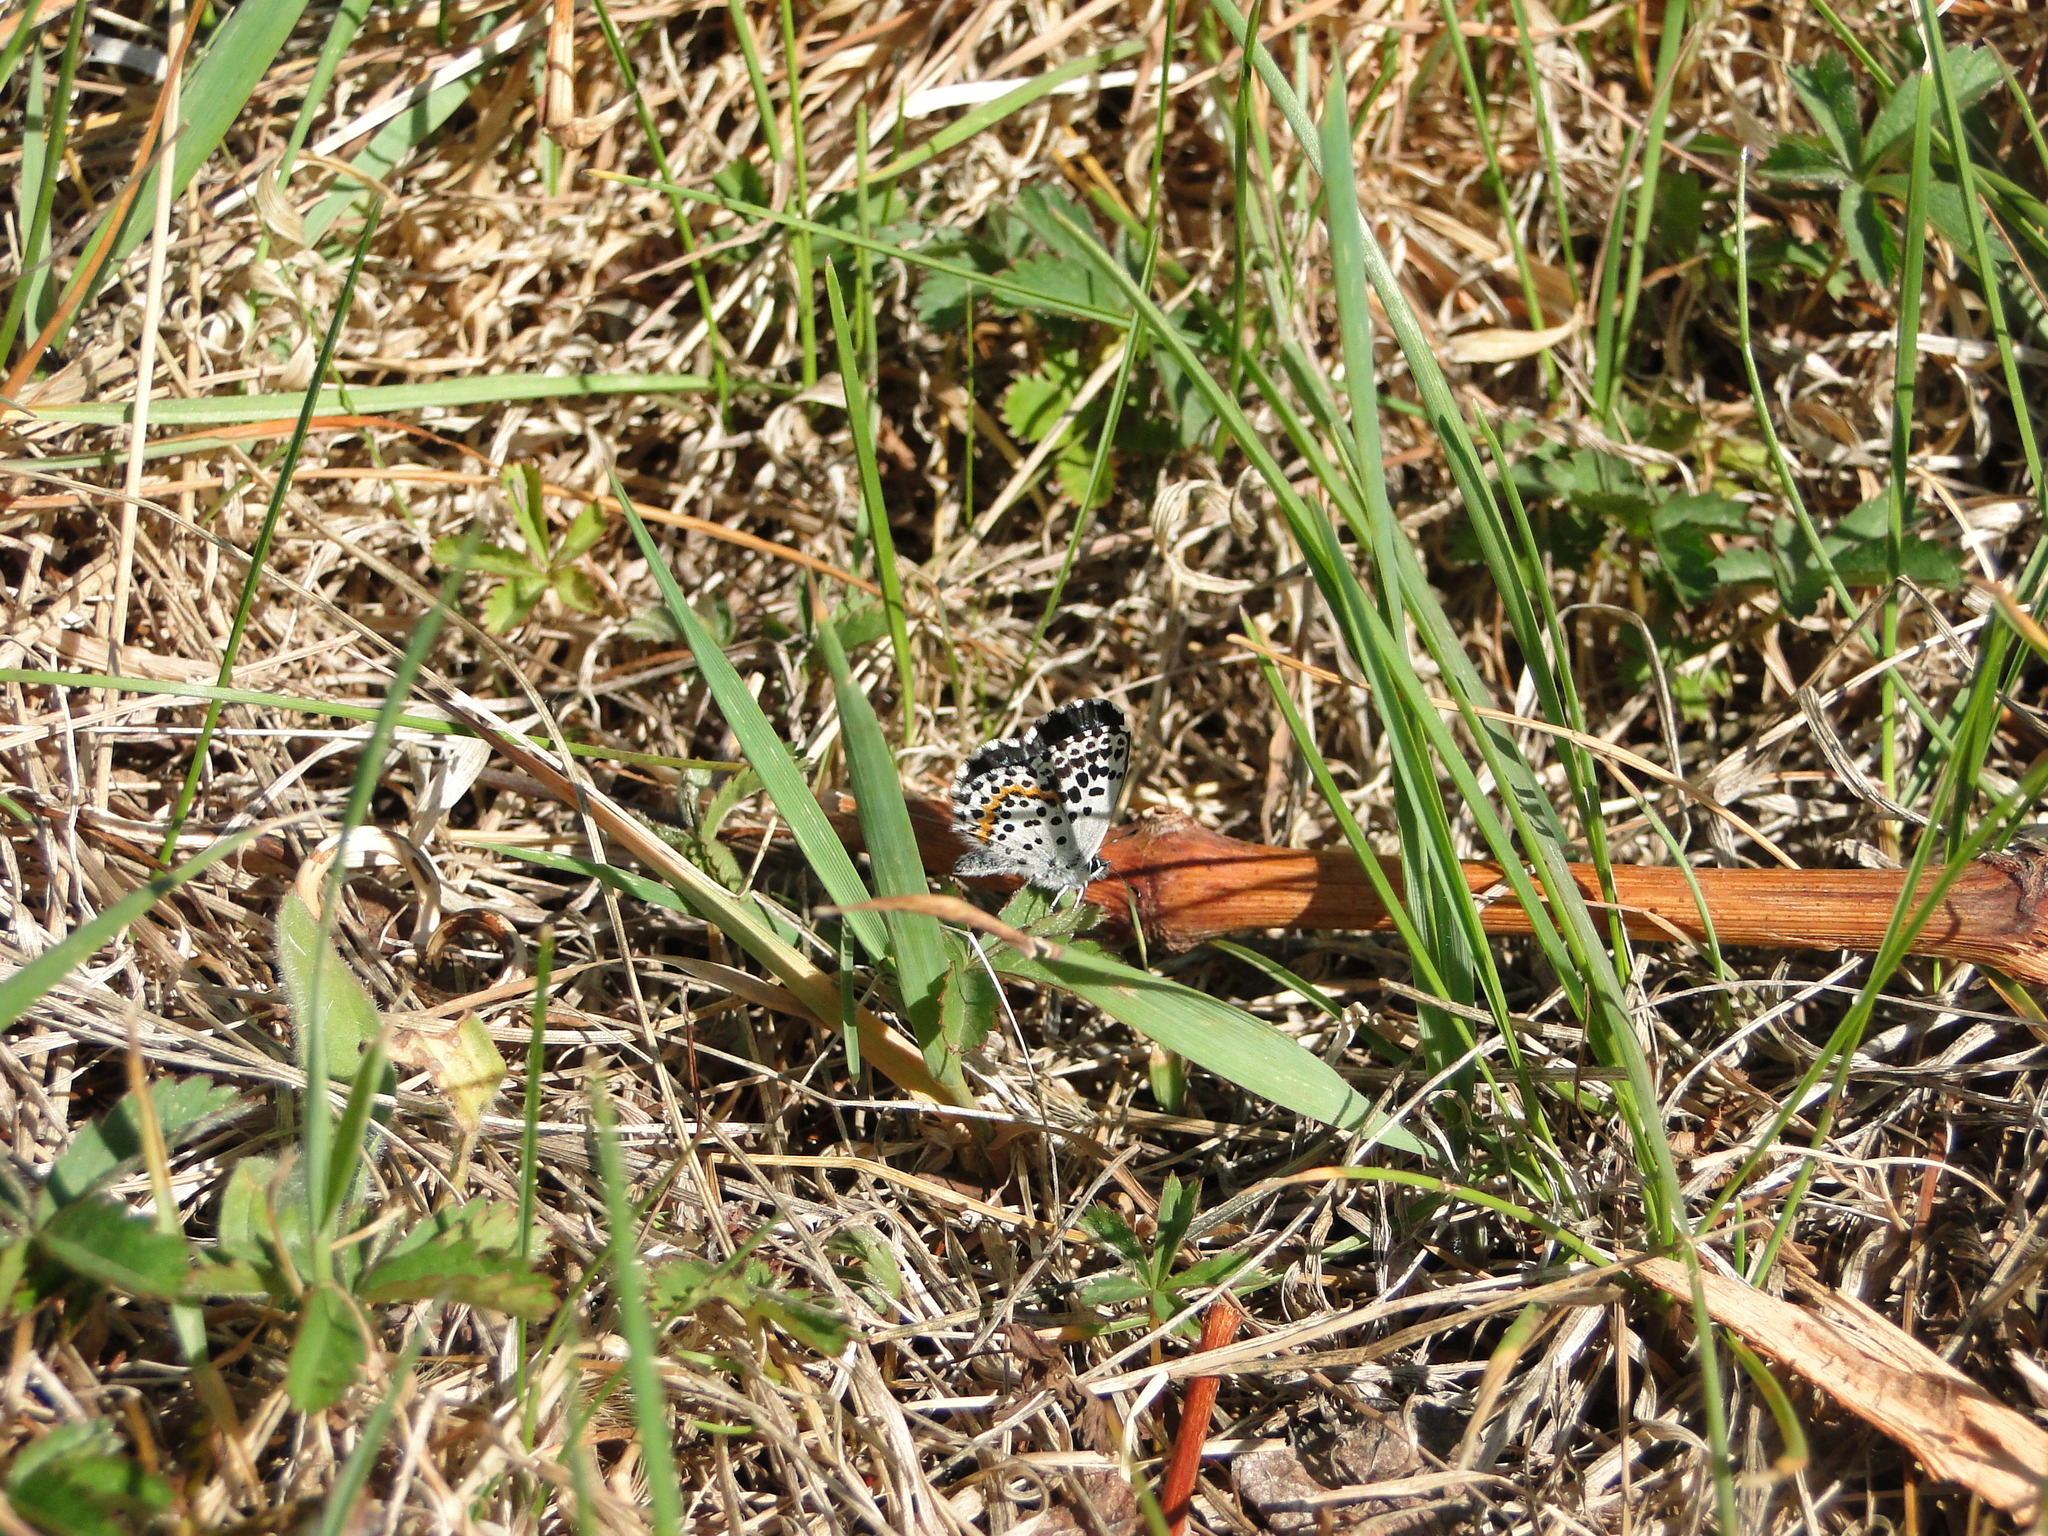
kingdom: Animalia
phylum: Arthropoda
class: Insecta
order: Lepidoptera
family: Lycaenidae
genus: Scolitantides
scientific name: Scolitantides orion
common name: Chequered blue
